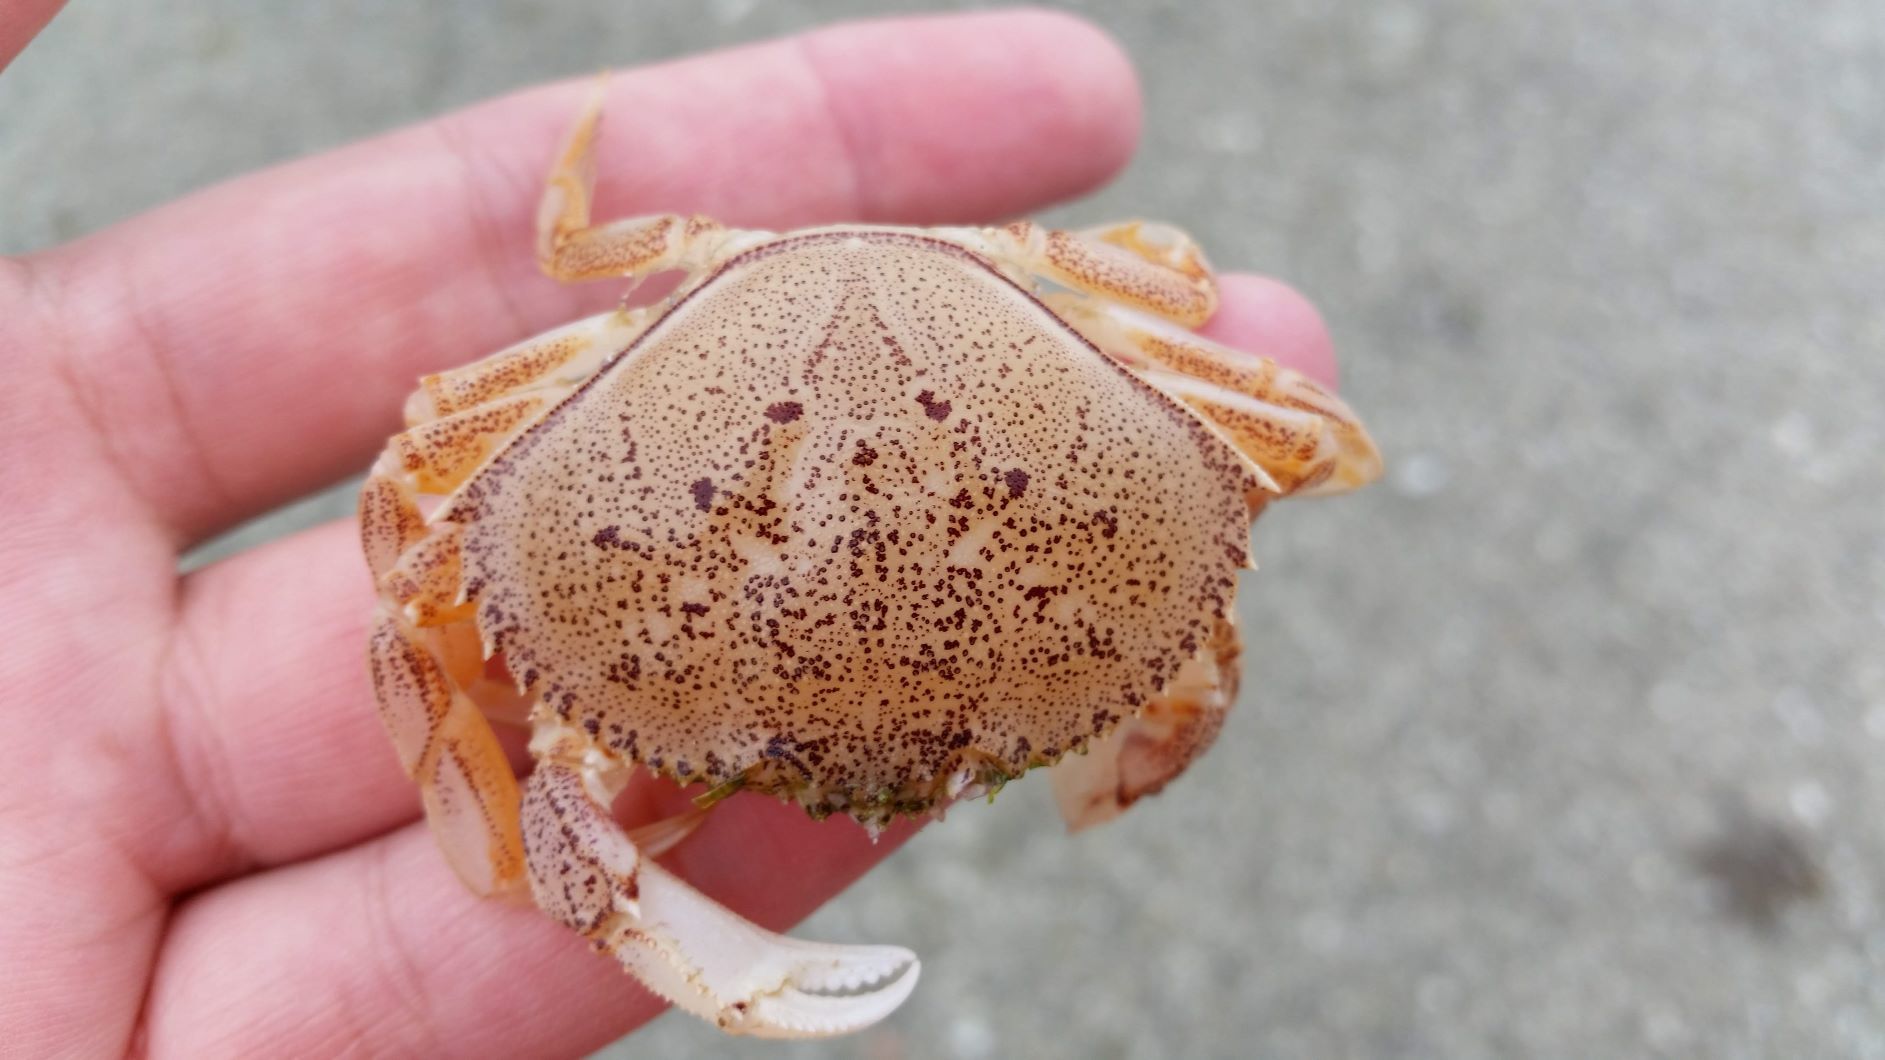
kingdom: Animalia
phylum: Arthropoda
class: Malacostraca
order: Decapoda
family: Cancridae
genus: Metacarcinus
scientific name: Metacarcinus magister
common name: Californian crab
